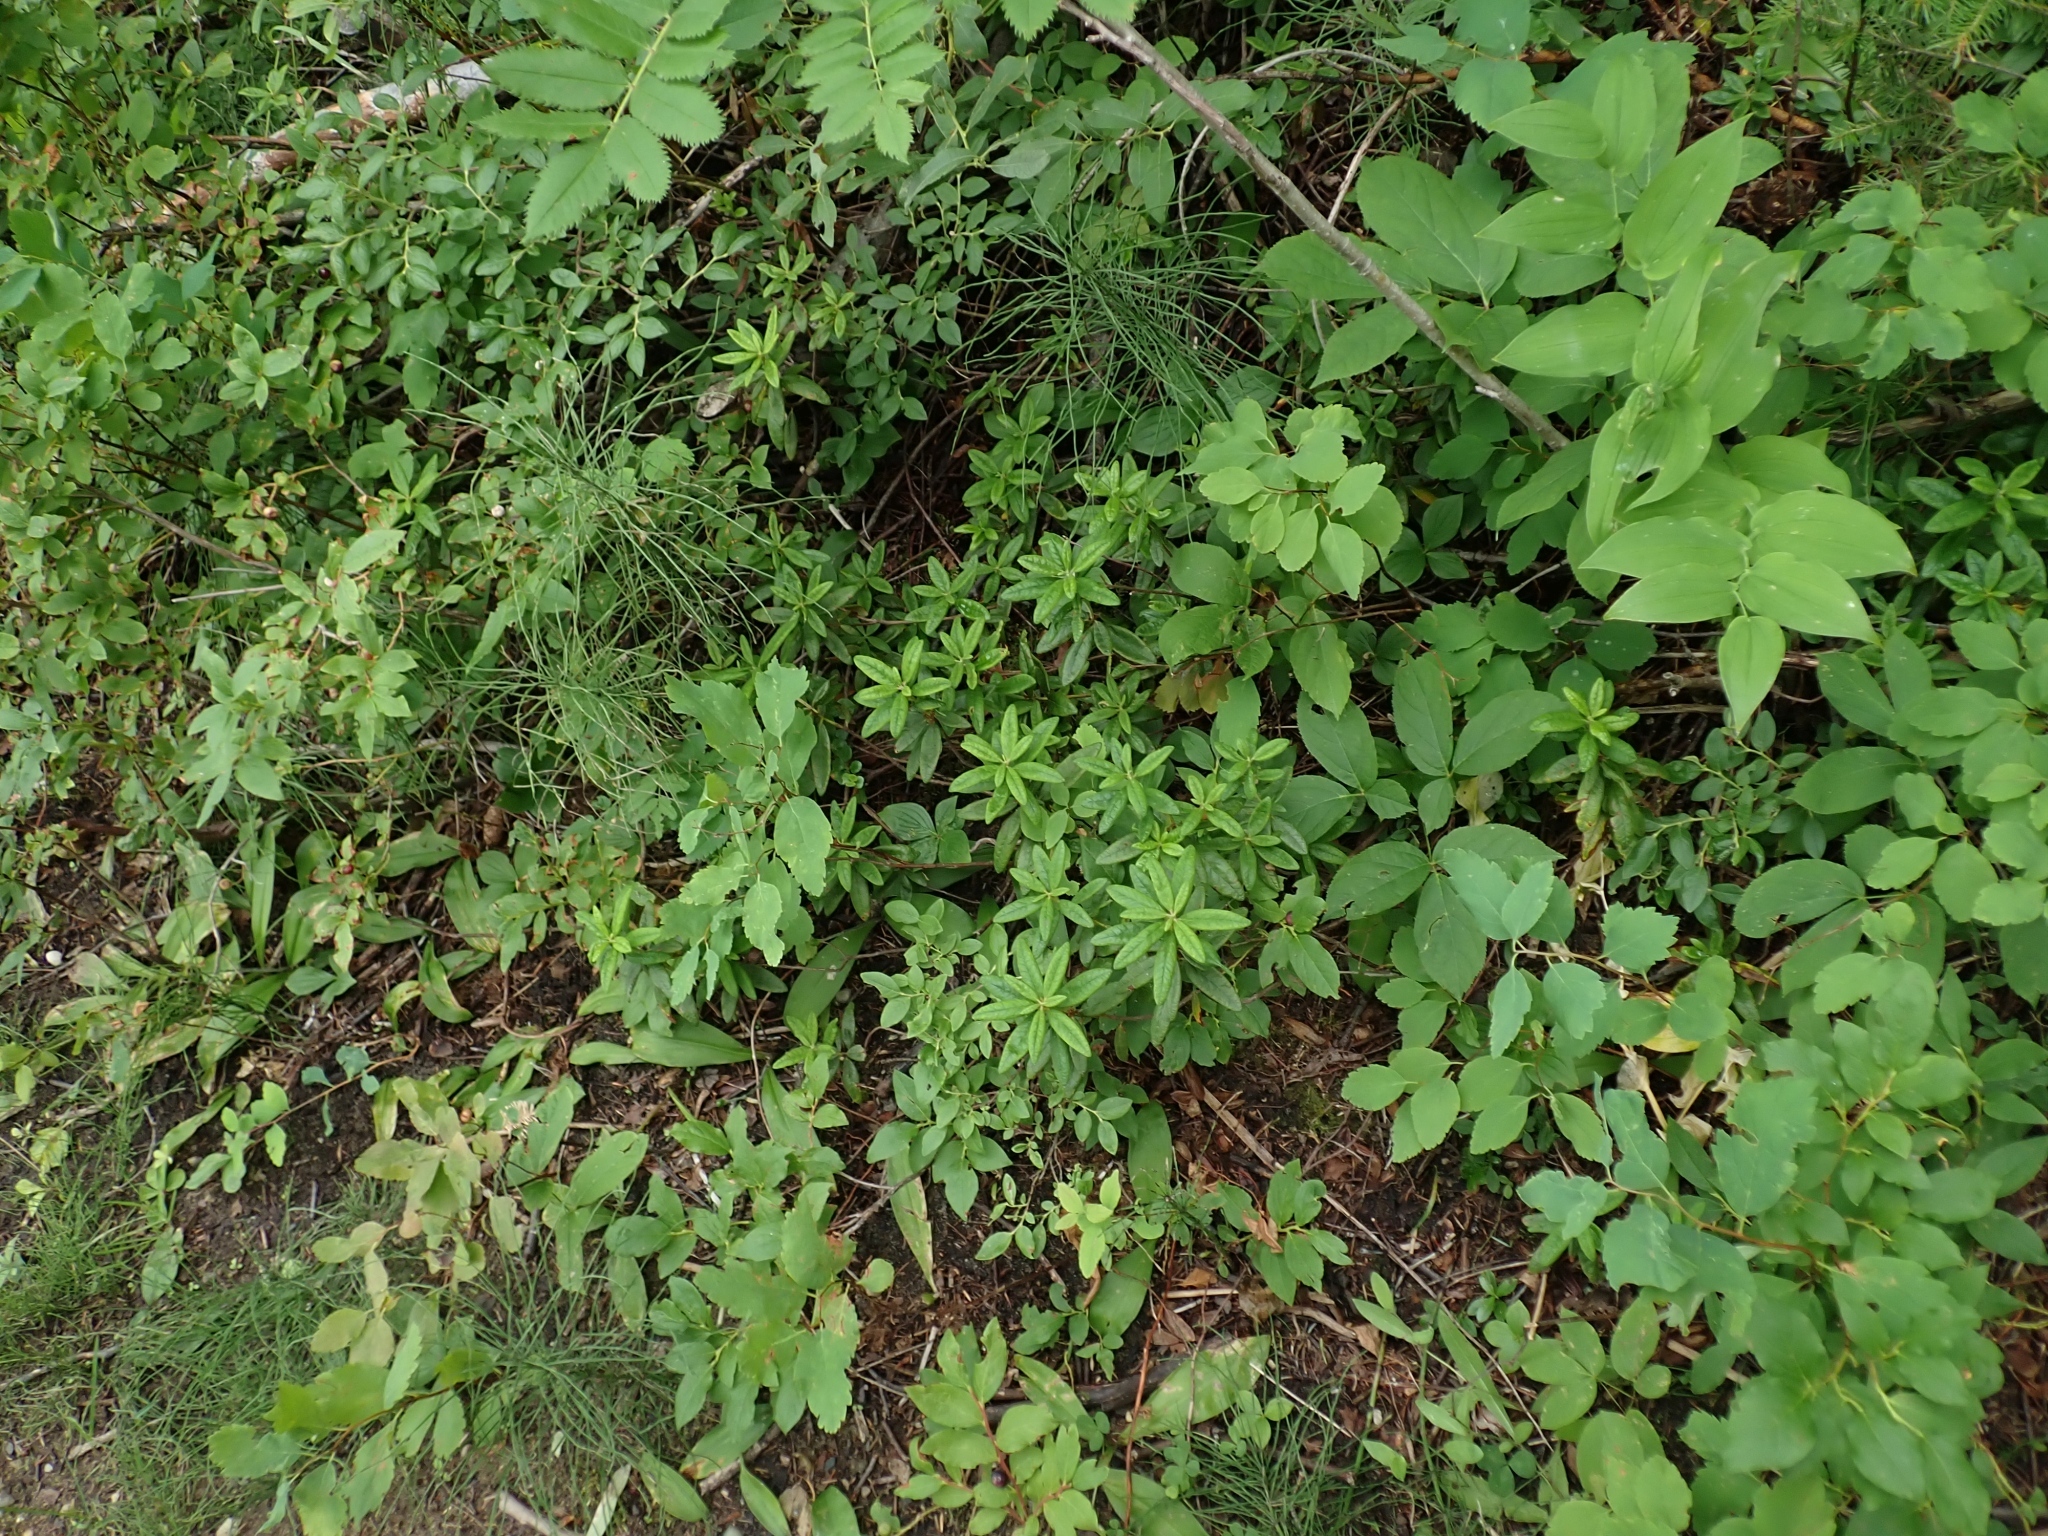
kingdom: Plantae
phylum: Tracheophyta
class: Magnoliopsida
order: Ericales
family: Ericaceae
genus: Rhododendron
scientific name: Rhododendron groenlandicum
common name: Bog labrador tea
